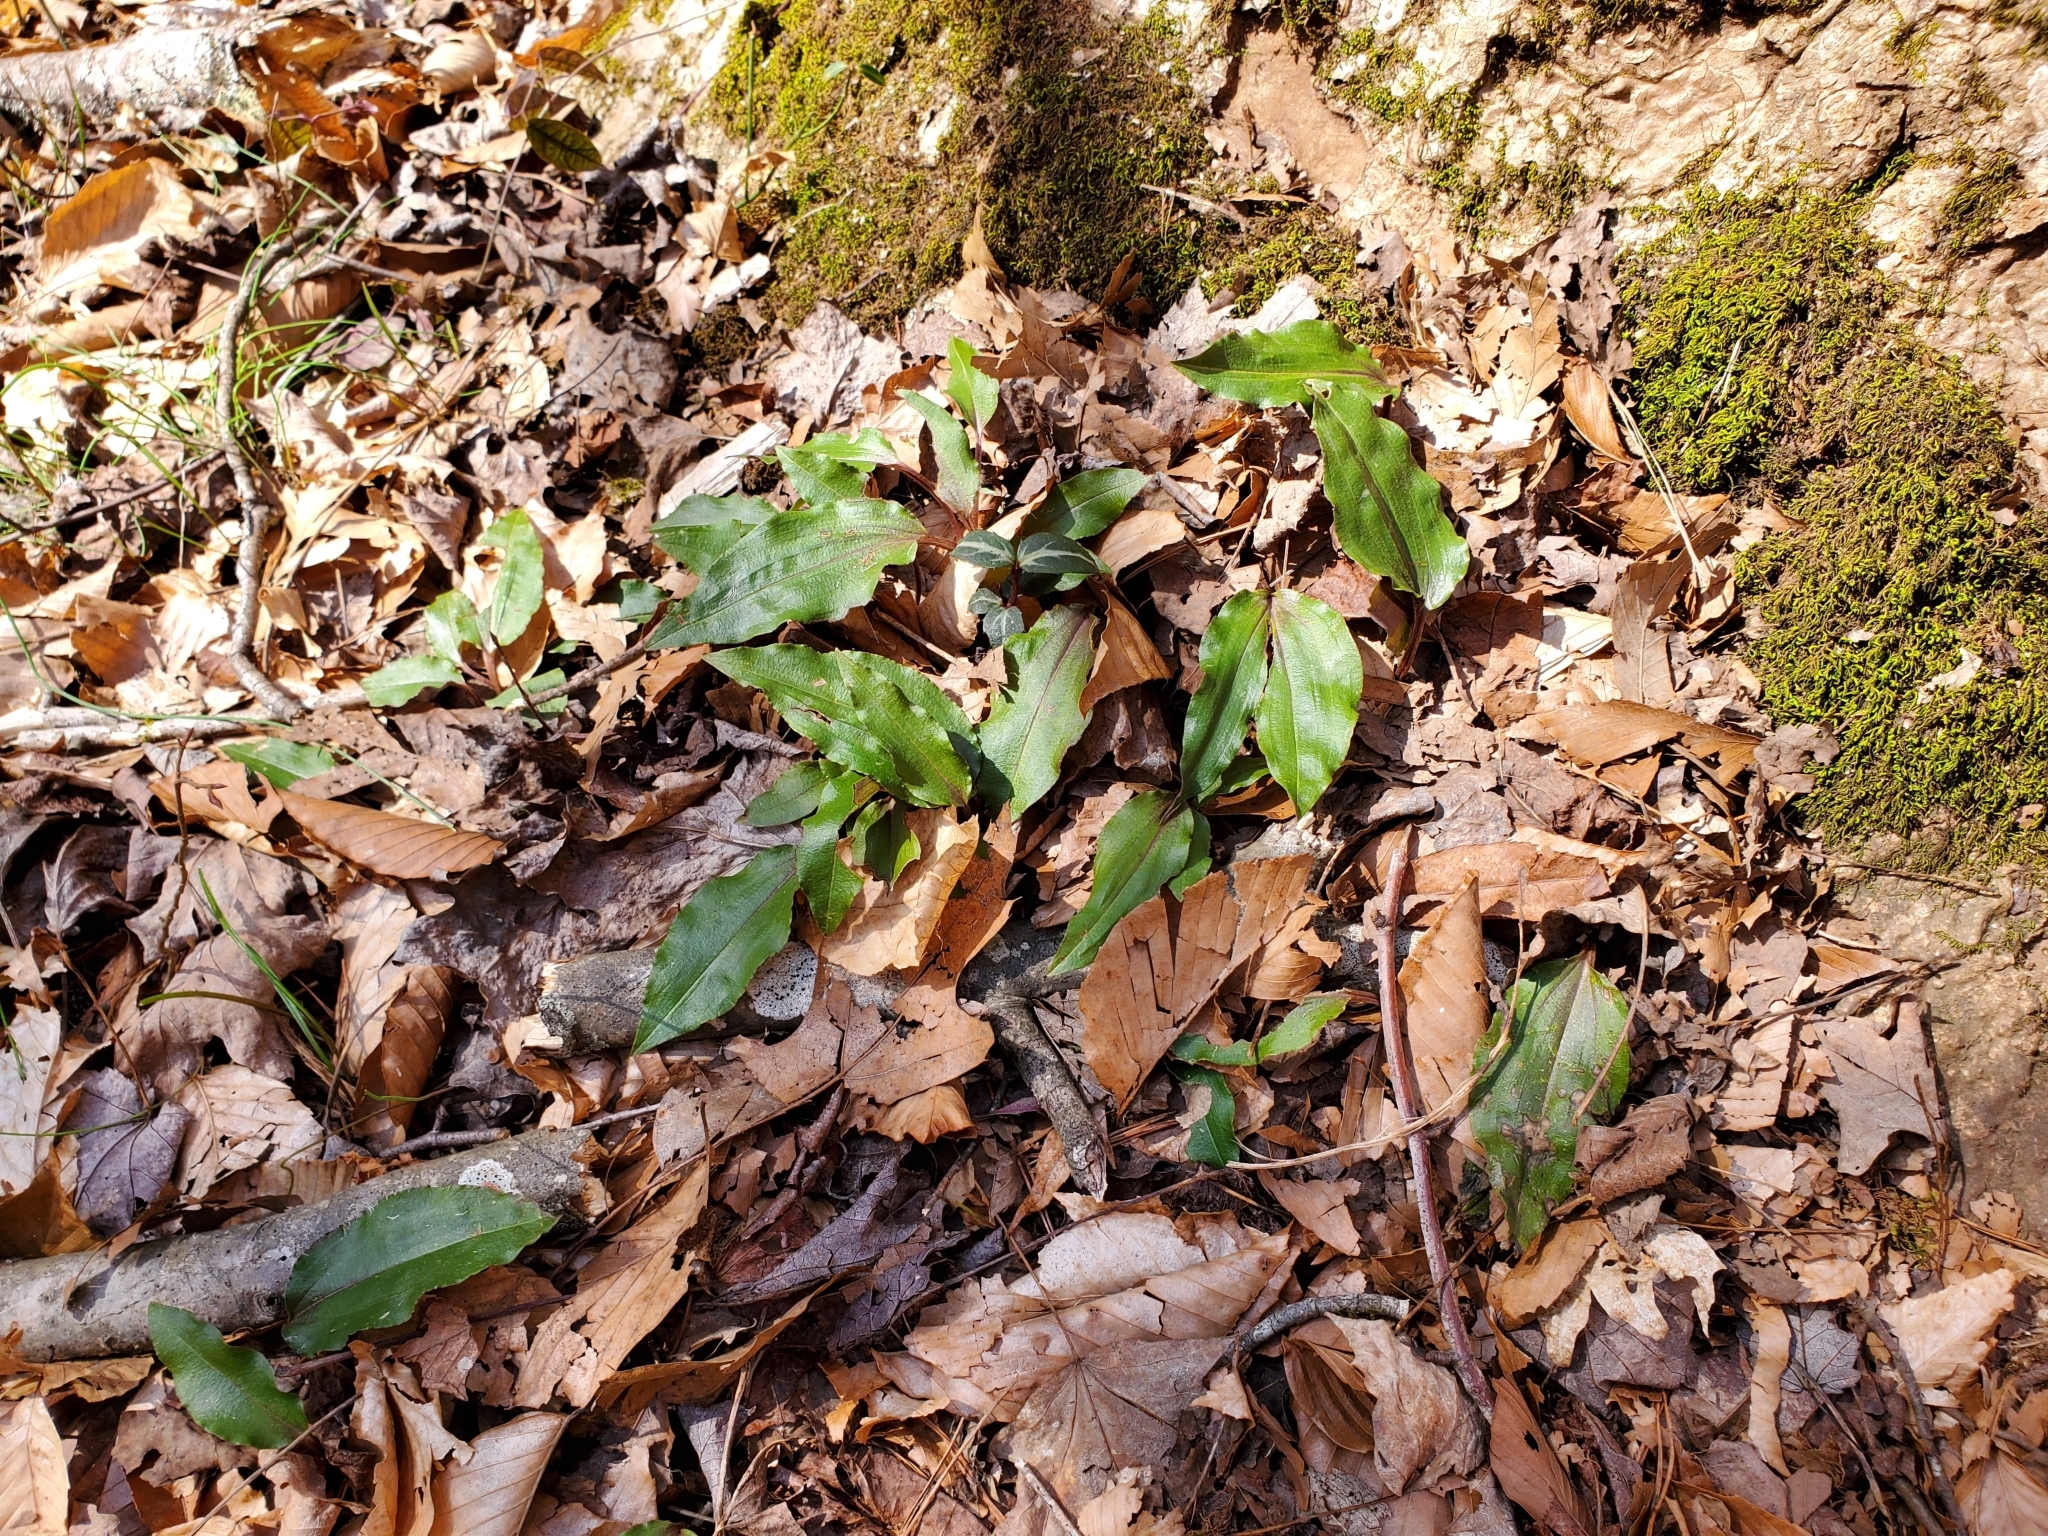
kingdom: Plantae
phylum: Tracheophyta
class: Liliopsida
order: Asparagales
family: Orchidaceae
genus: Tipularia
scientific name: Tipularia discolor
